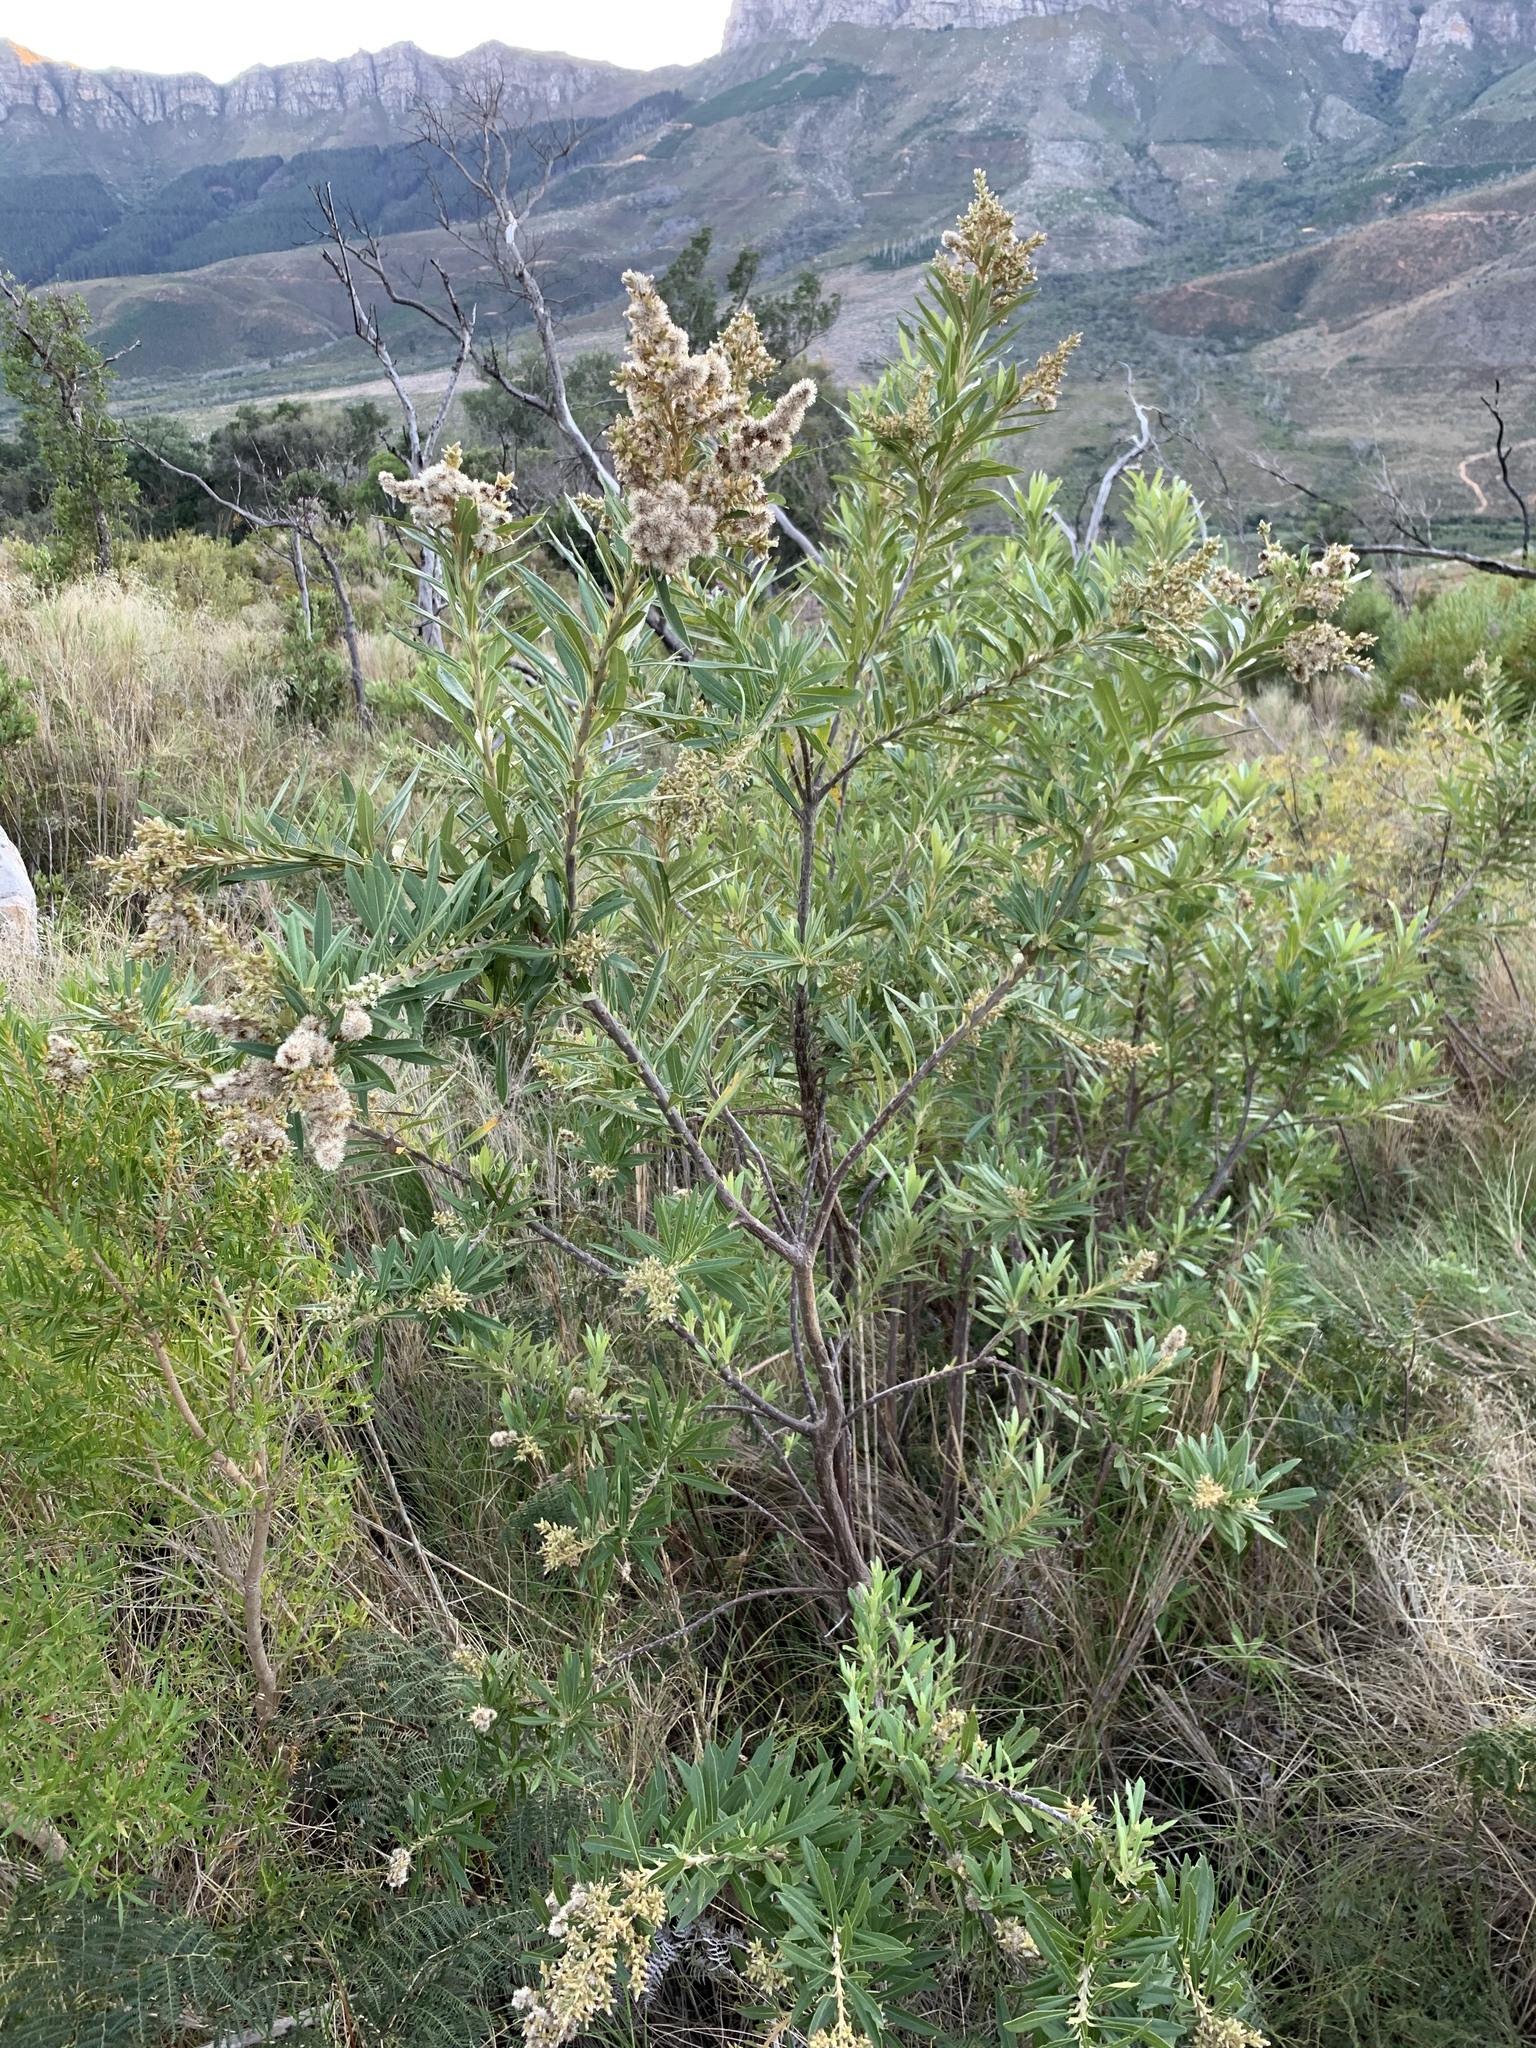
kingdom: Plantae
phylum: Tracheophyta
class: Magnoliopsida
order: Asterales
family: Asteraceae
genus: Brachylaena
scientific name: Brachylaena neriifolia
